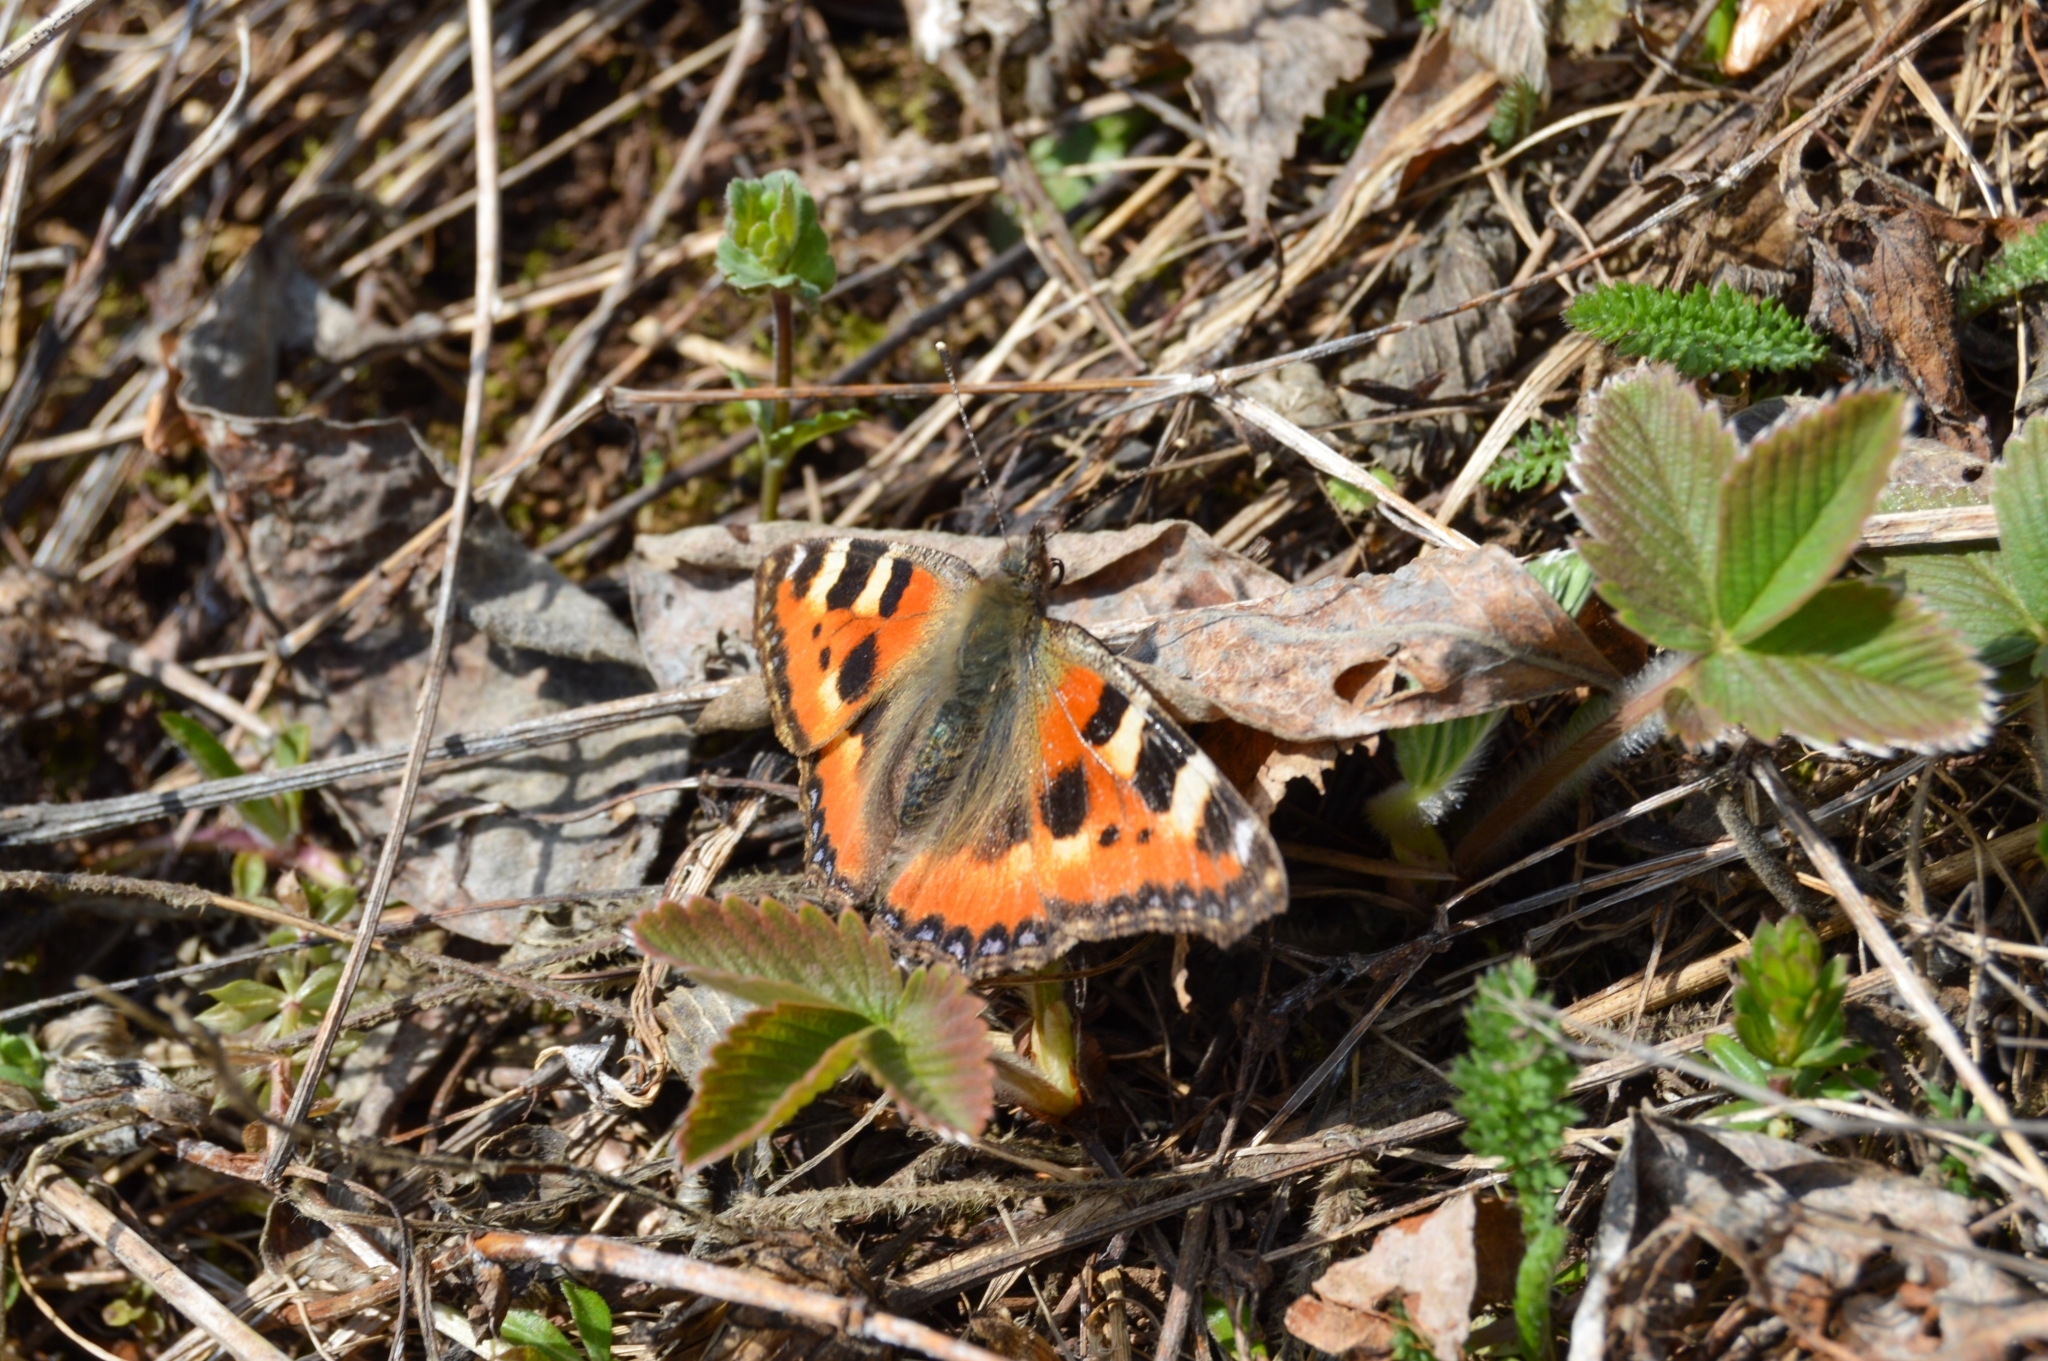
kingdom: Animalia
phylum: Arthropoda
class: Insecta
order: Lepidoptera
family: Nymphalidae
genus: Aglais
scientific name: Aglais urticae
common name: Small tortoiseshell
